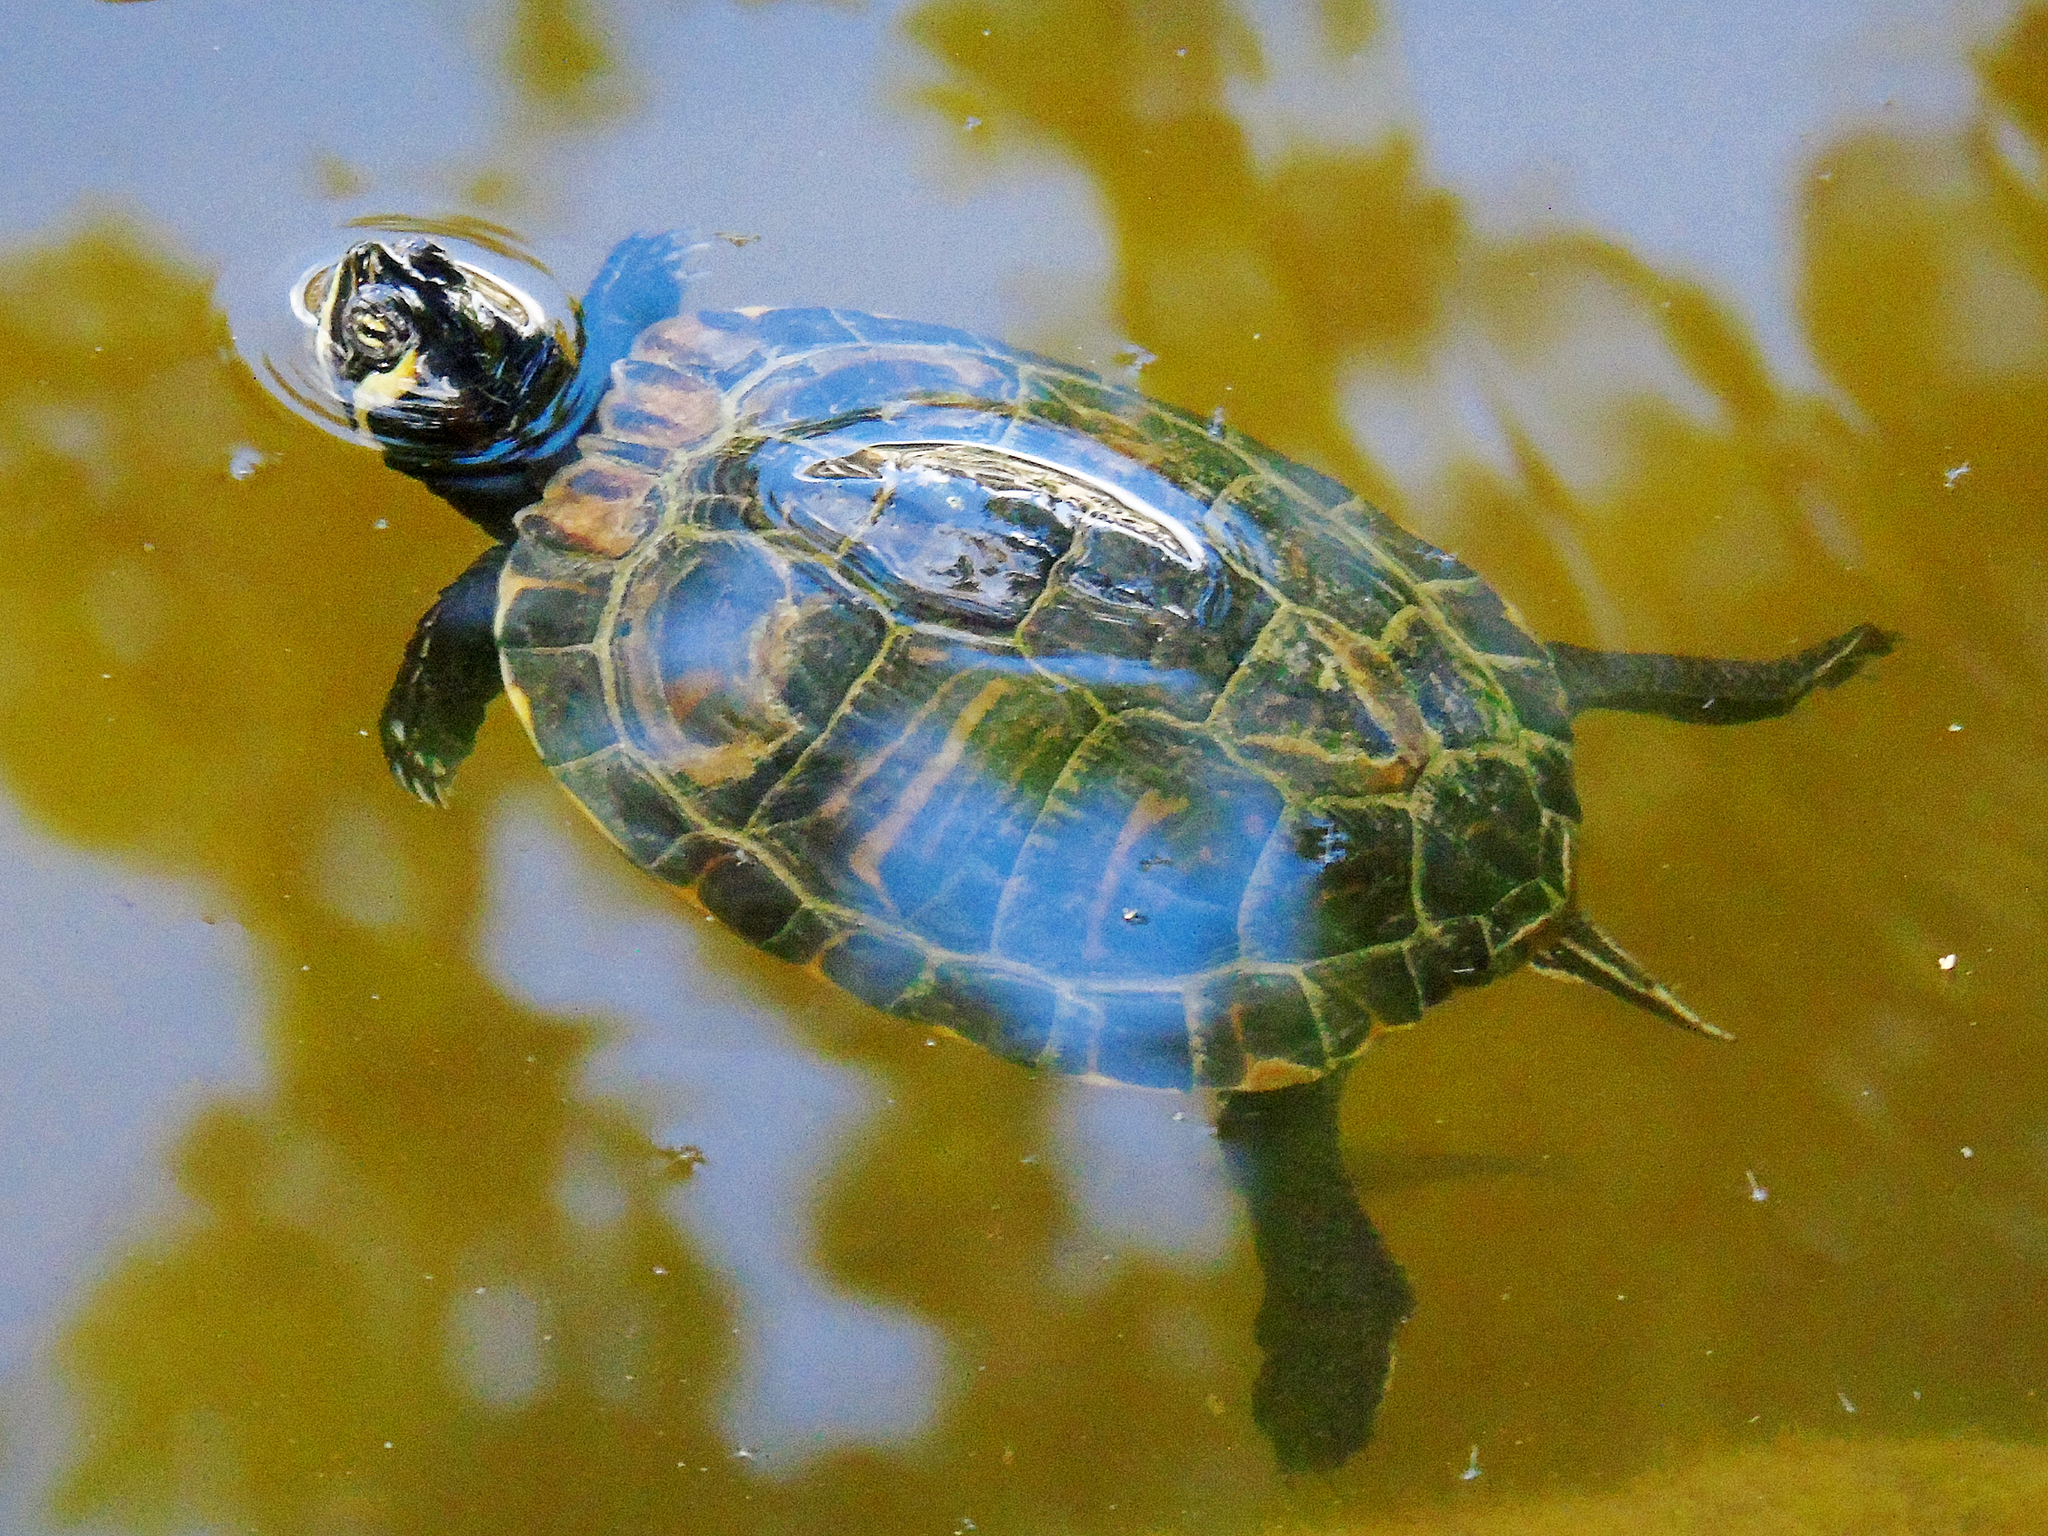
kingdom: Animalia
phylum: Chordata
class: Testudines
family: Emydidae
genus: Trachemys
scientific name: Trachemys scripta
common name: Slider
